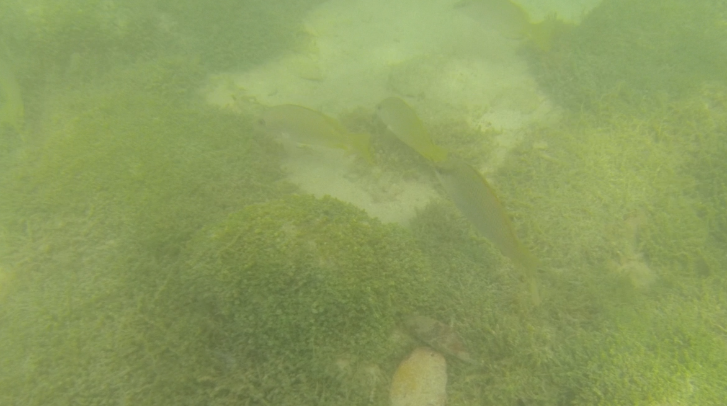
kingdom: Animalia
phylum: Chordata
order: Perciformes
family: Lutjanidae
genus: Lutjanus
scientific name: Lutjanus argentiventris
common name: Yellow snapper
